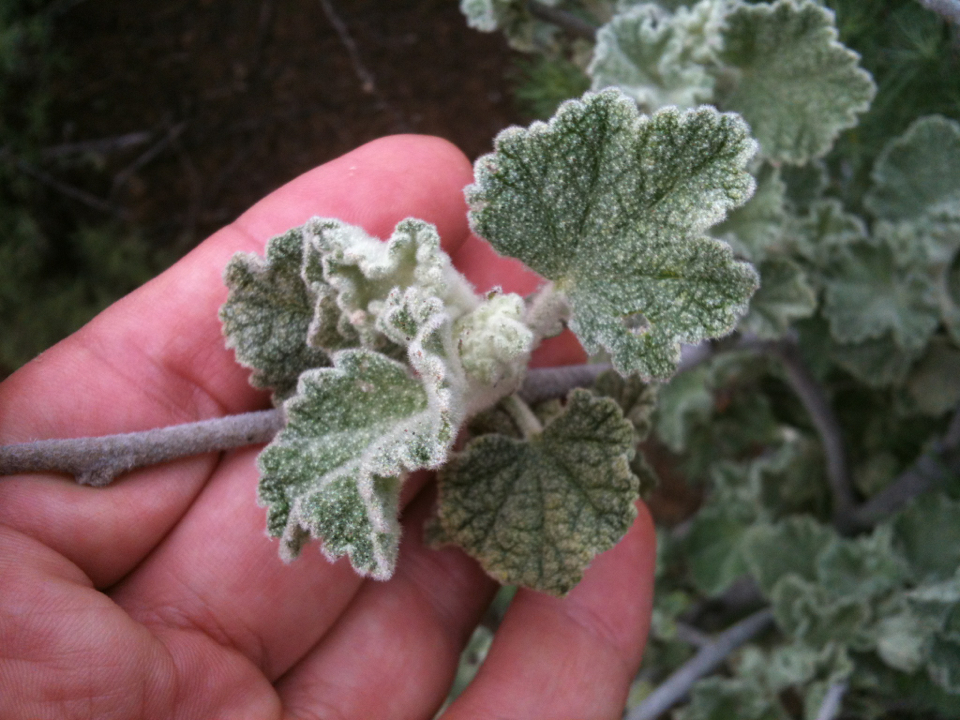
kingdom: Plantae
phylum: Tracheophyta
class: Magnoliopsida
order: Malvales
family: Malvaceae
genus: Malacothamnus
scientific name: Malacothamnus fremontii
